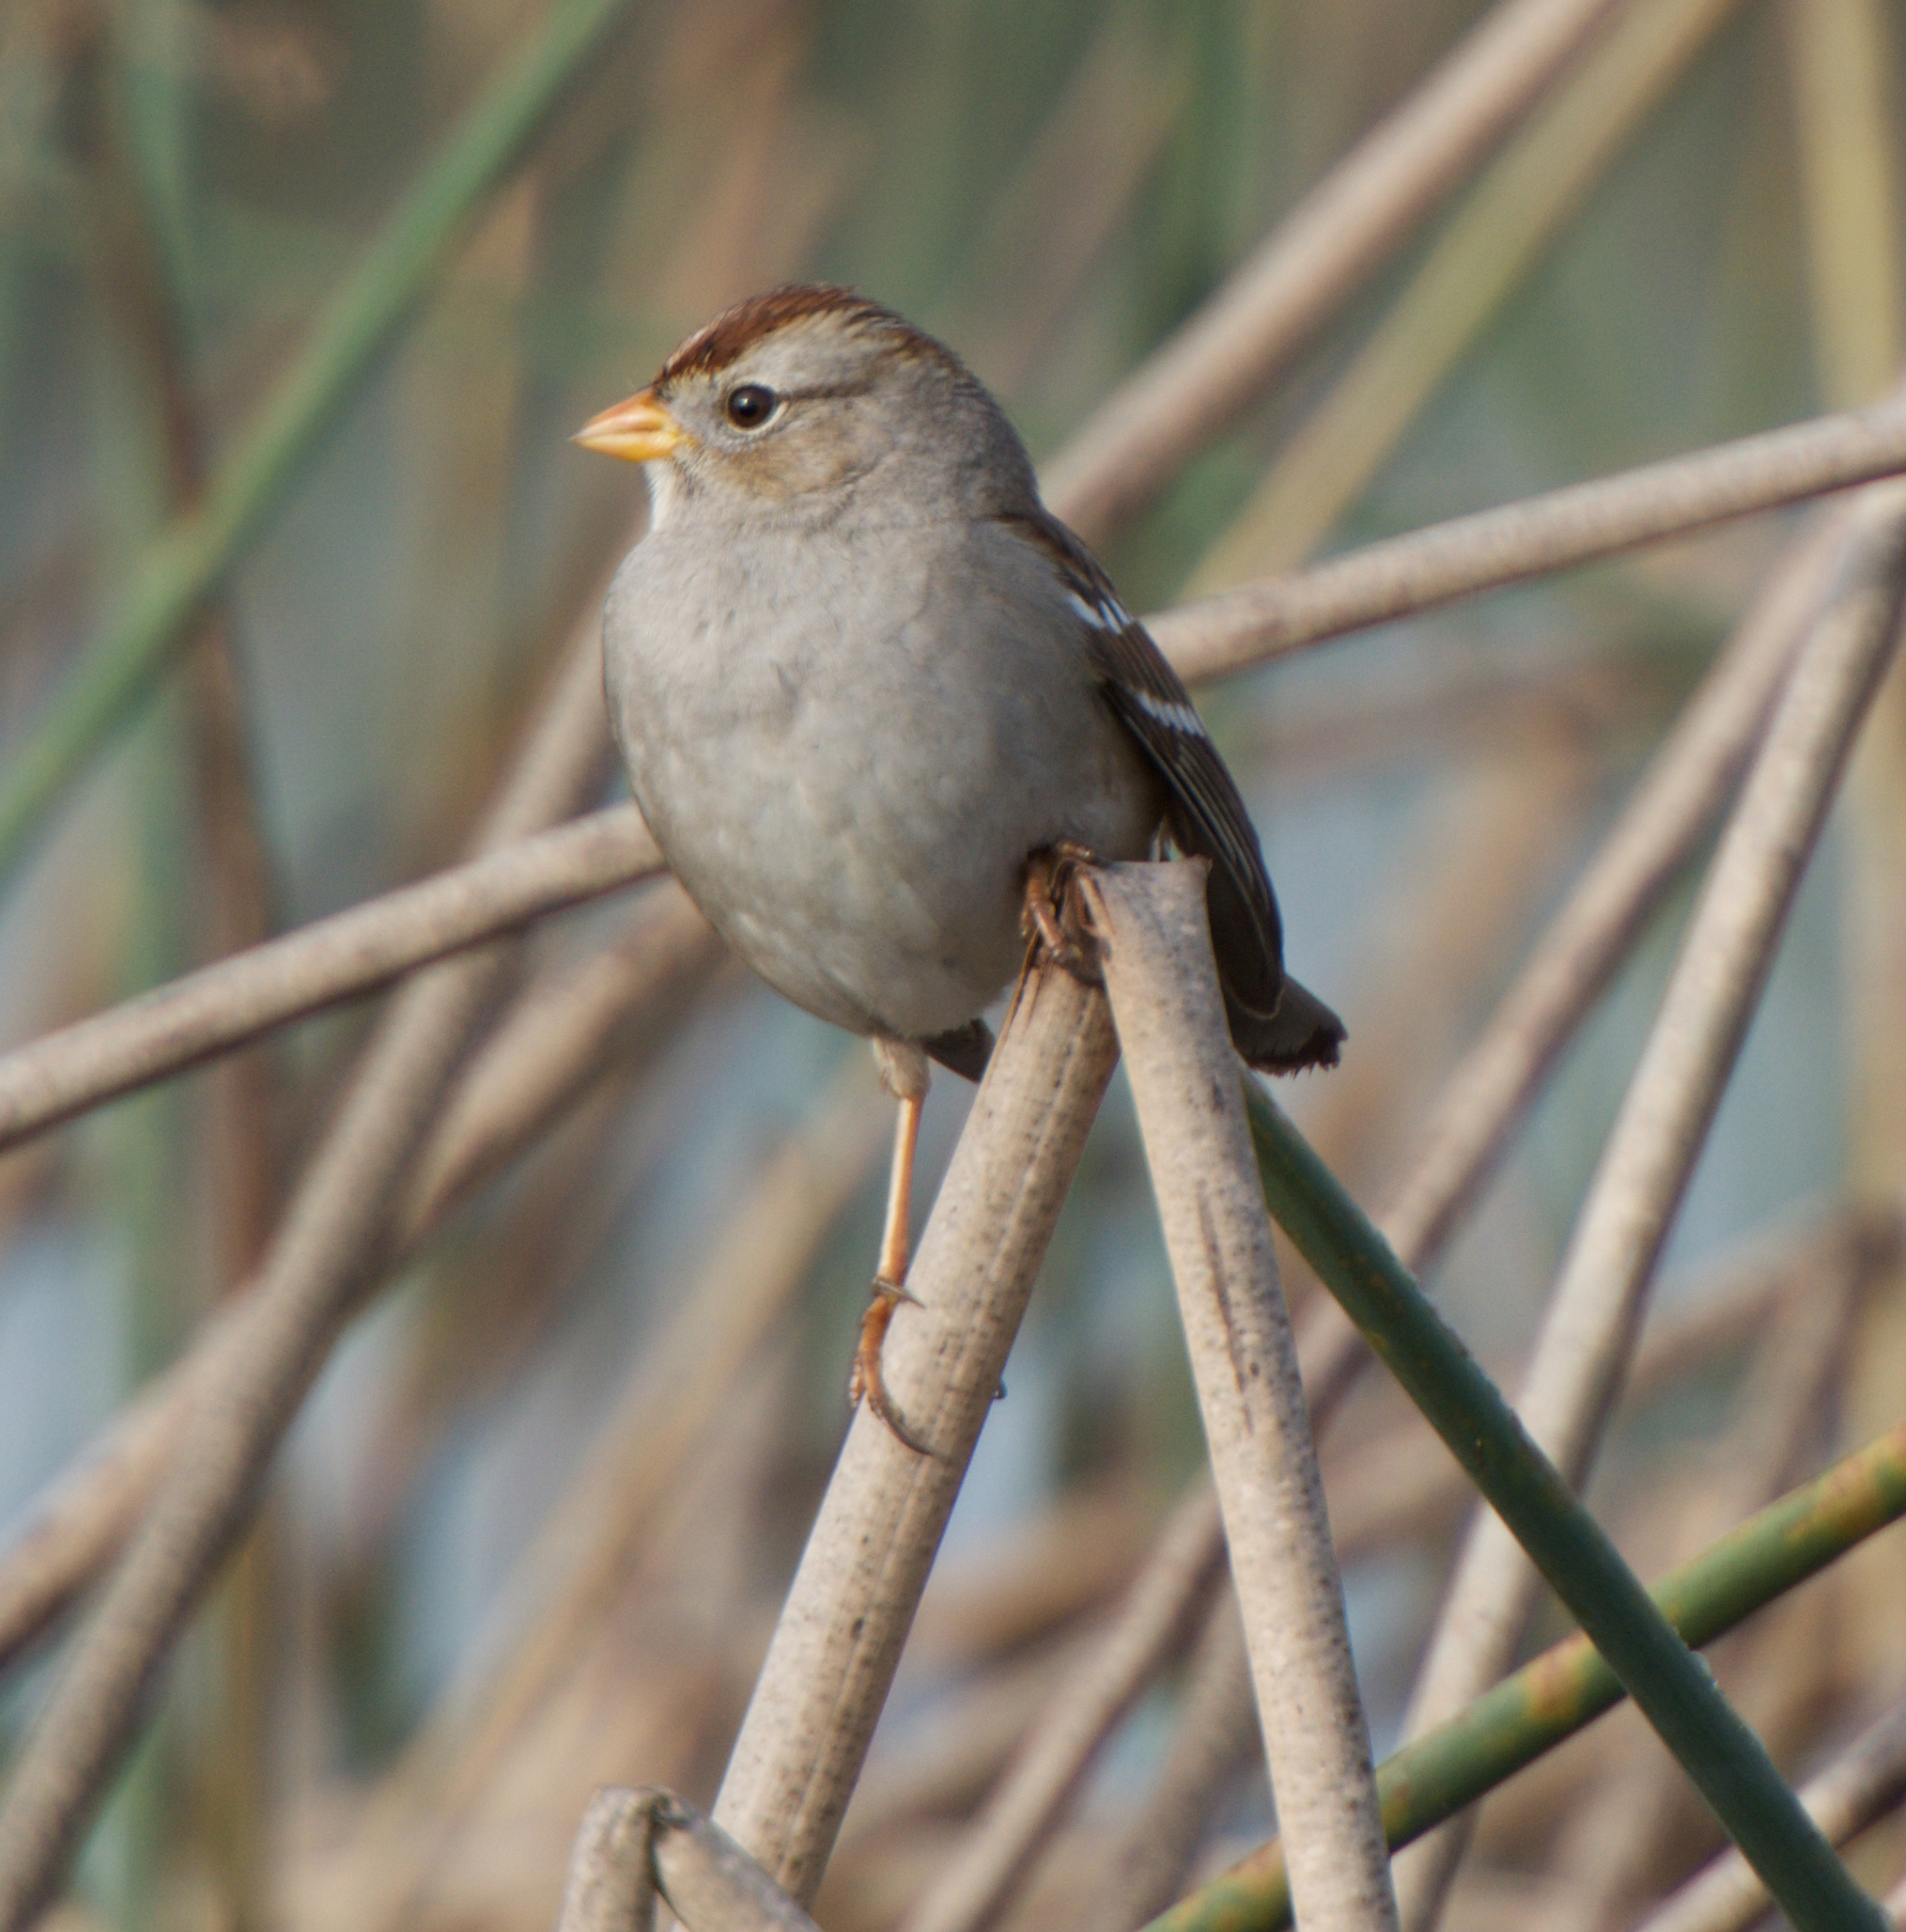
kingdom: Animalia
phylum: Chordata
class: Aves
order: Passeriformes
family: Passerellidae
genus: Zonotrichia
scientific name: Zonotrichia leucophrys
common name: White-crowned sparrow
